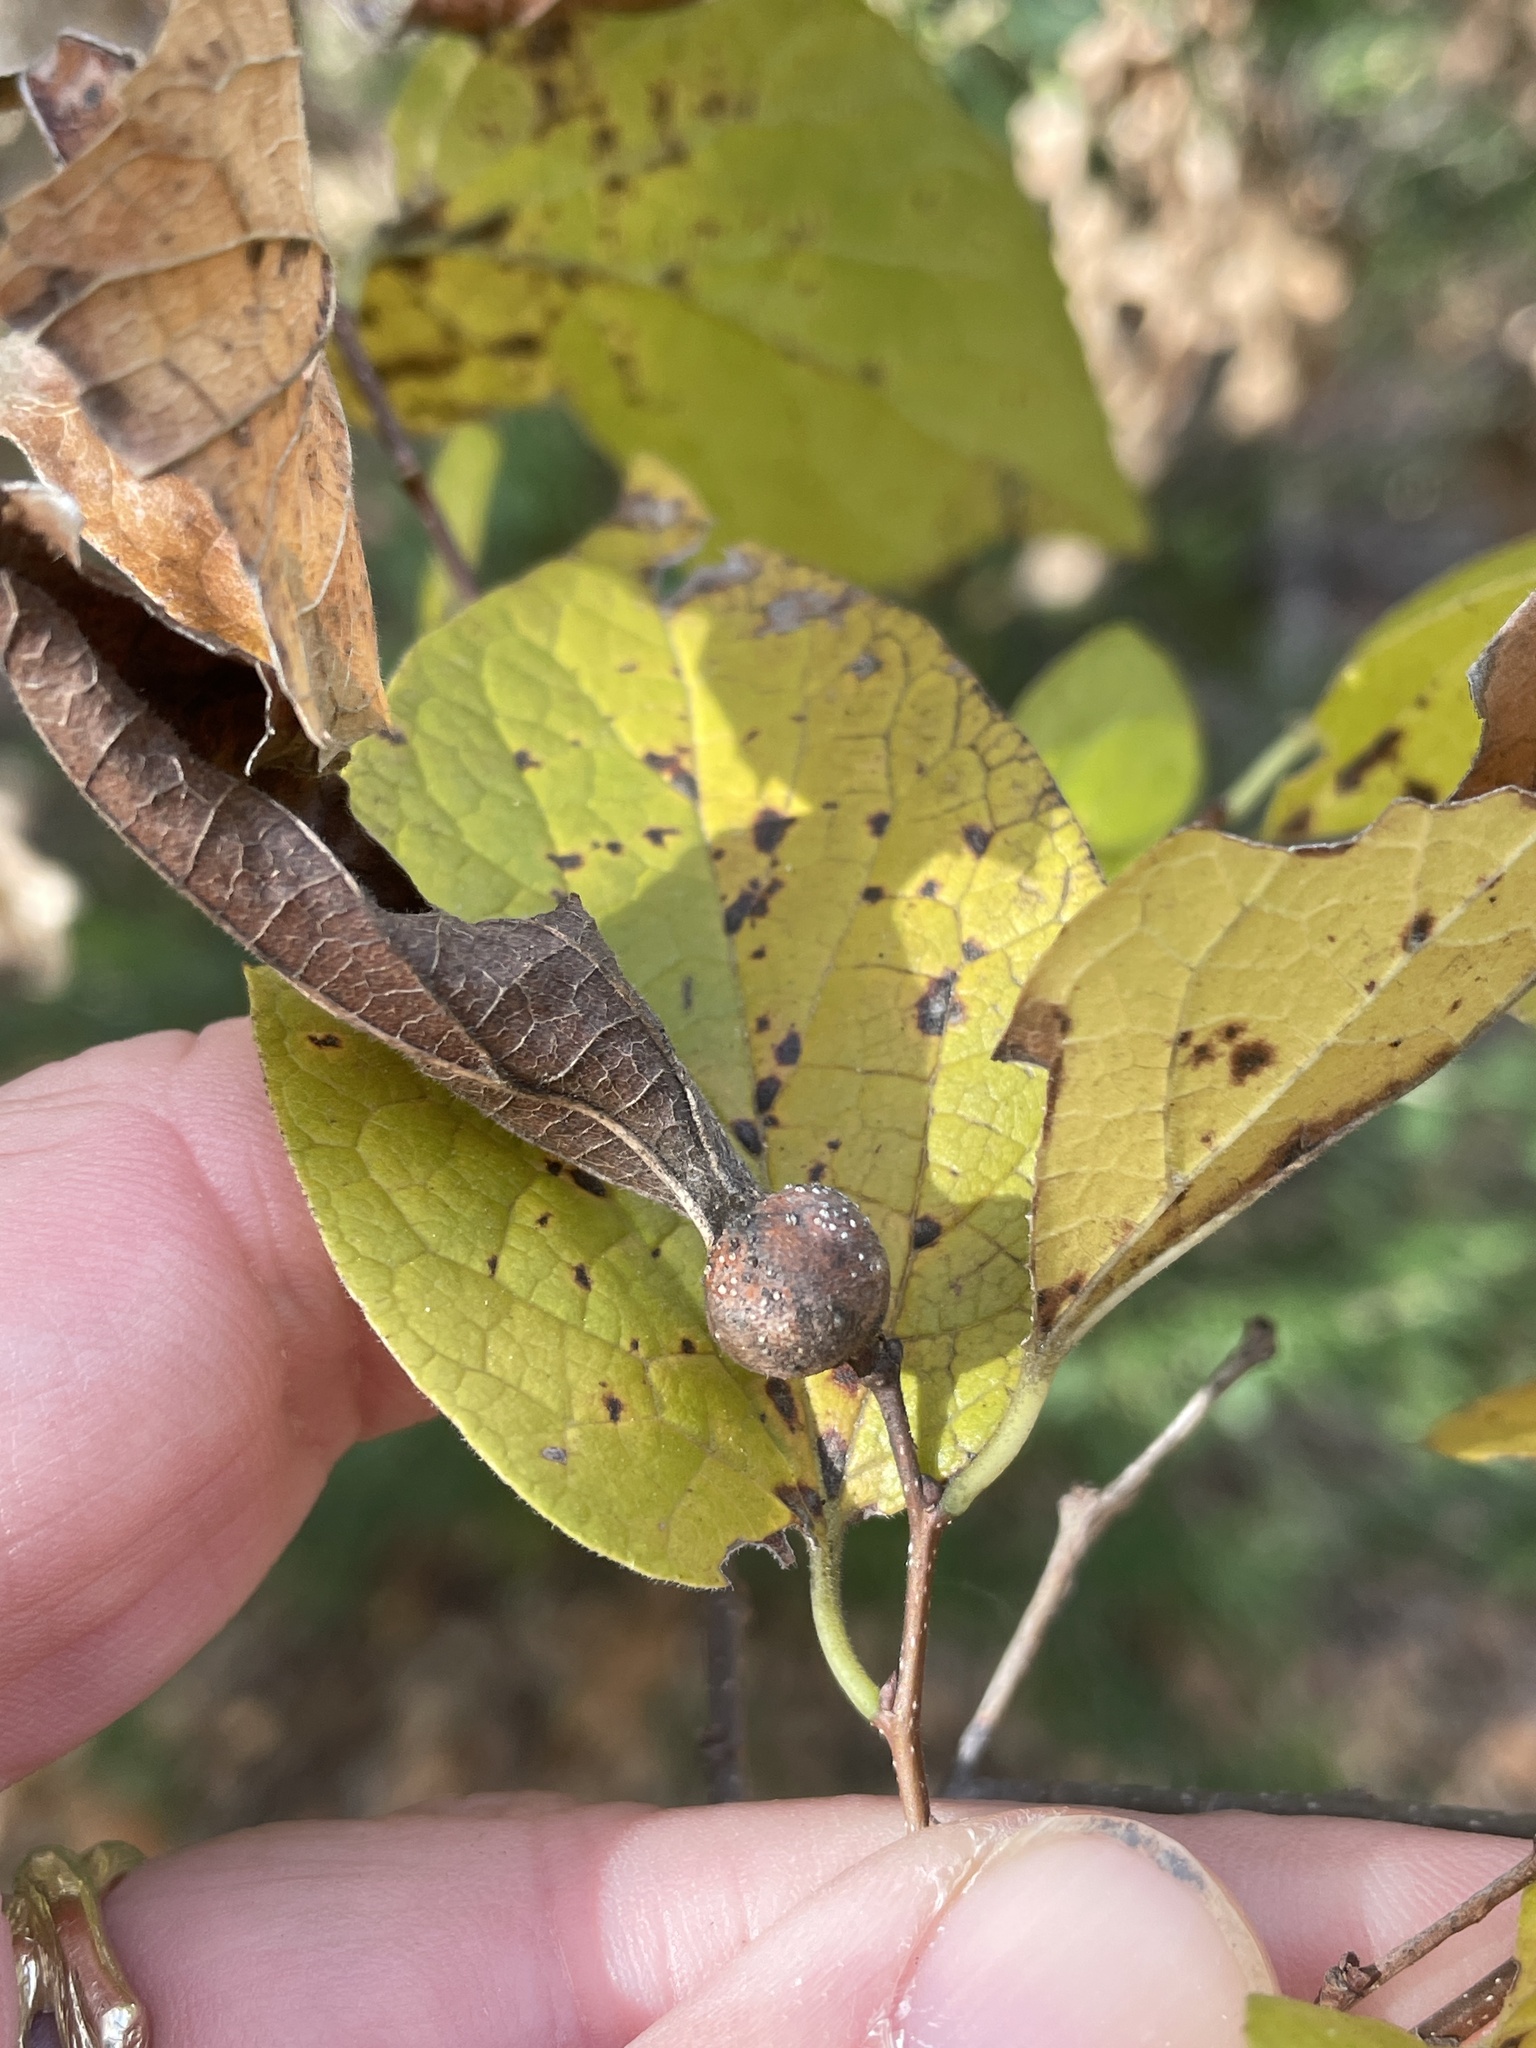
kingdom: Animalia
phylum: Arthropoda
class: Insecta
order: Hemiptera
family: Aphalaridae
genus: Pachypsylla
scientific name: Pachypsylla venusta
